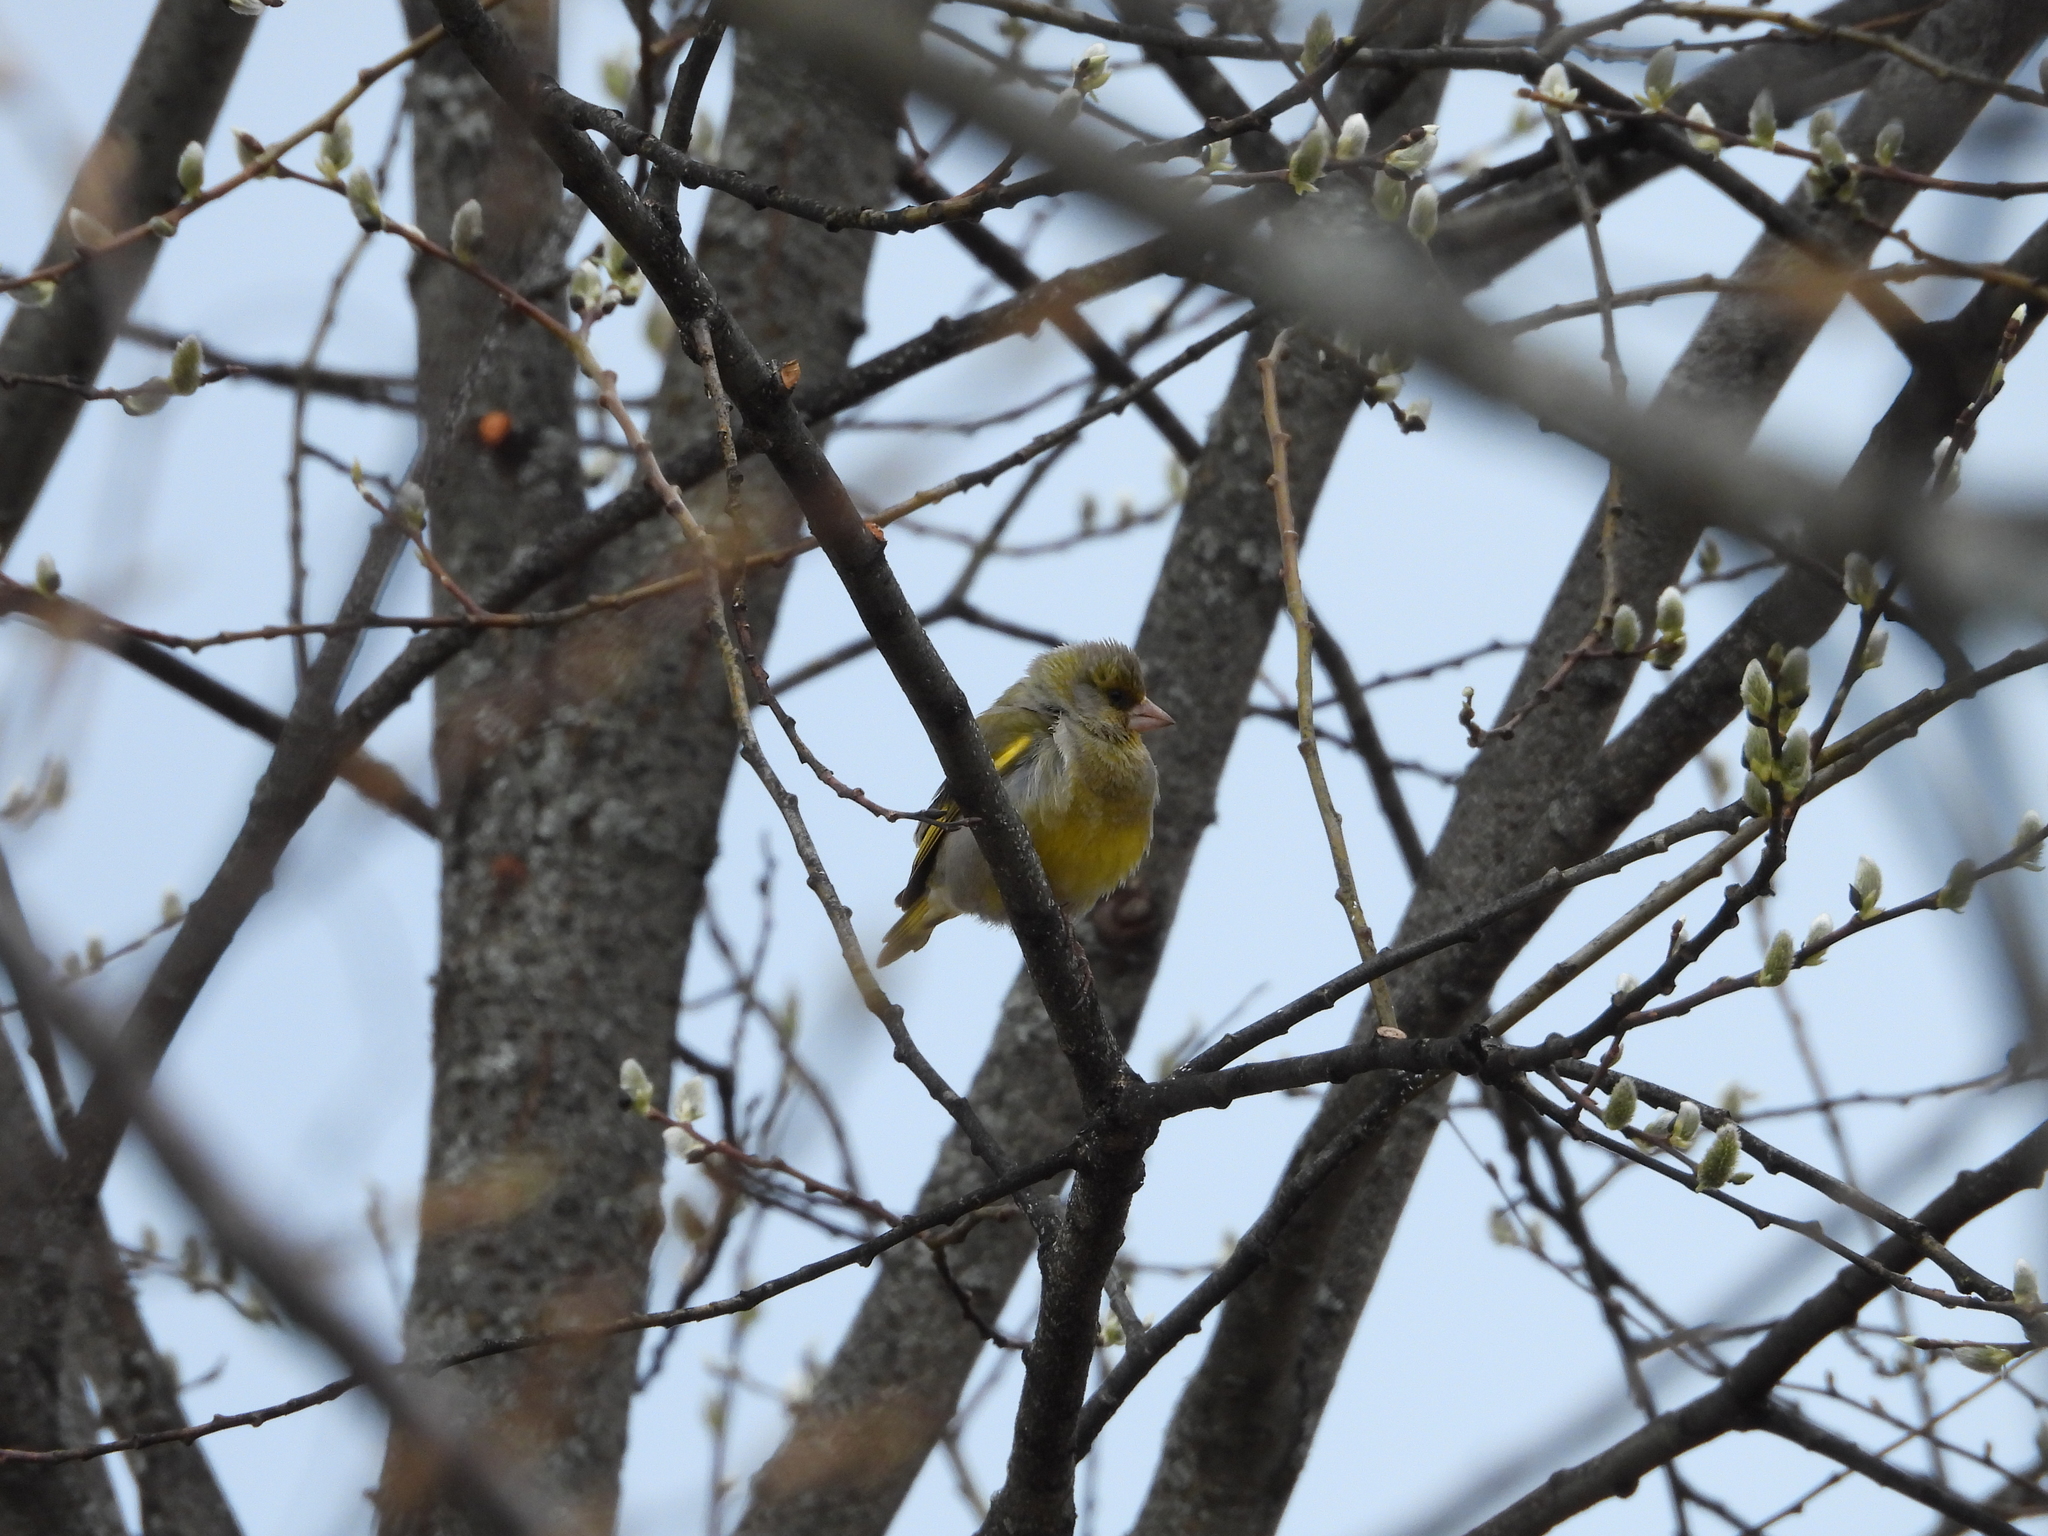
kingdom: Plantae
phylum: Tracheophyta
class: Liliopsida
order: Poales
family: Poaceae
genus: Chloris
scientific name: Chloris chloris
